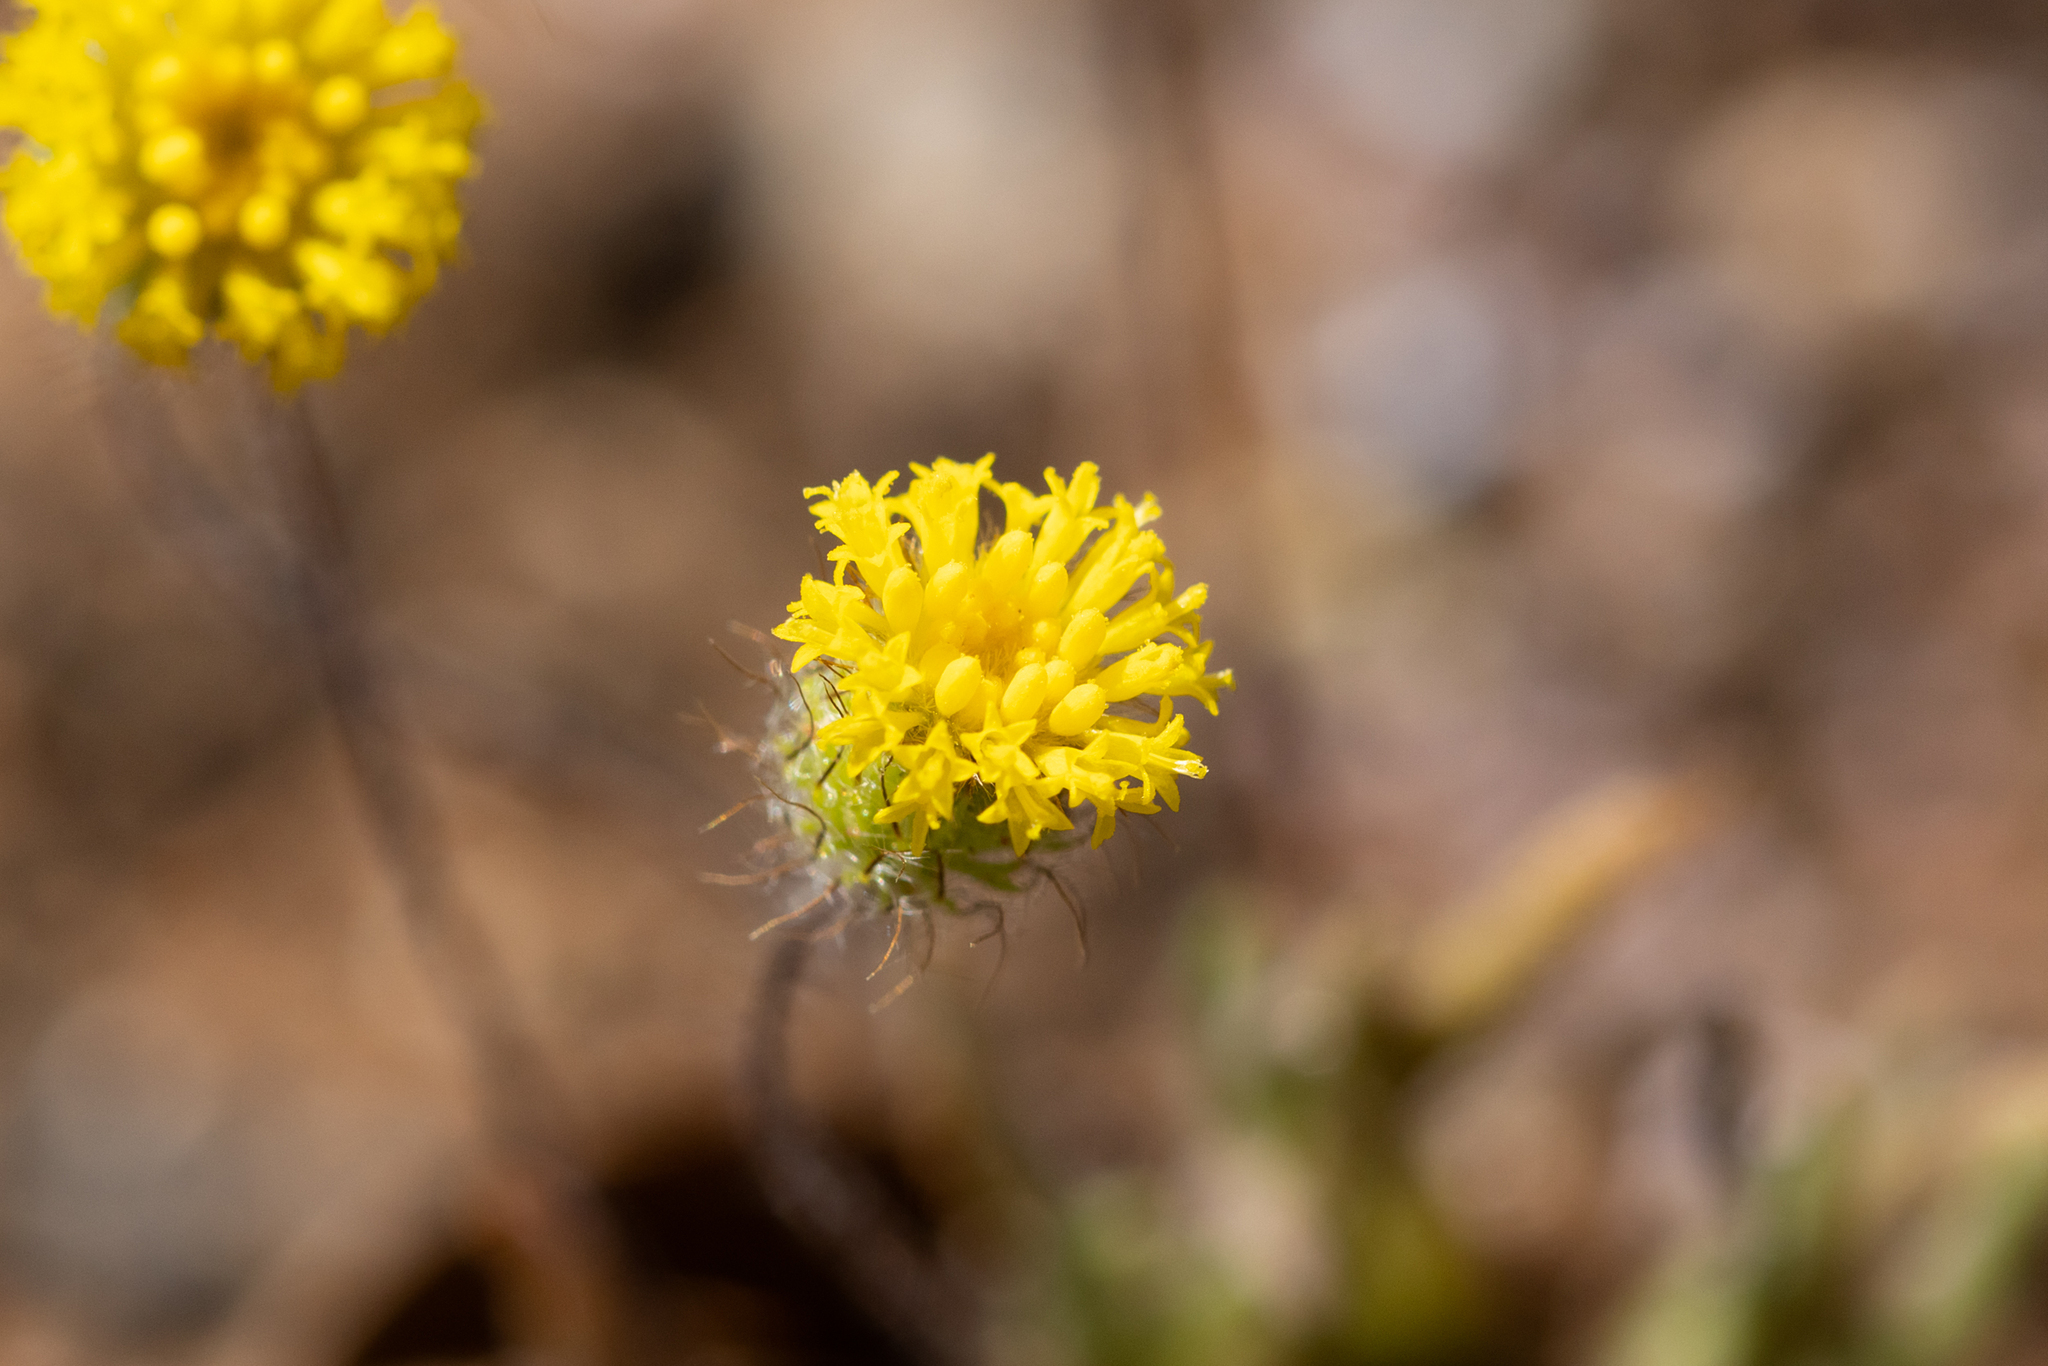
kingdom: Plantae
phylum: Tracheophyta
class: Magnoliopsida
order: Asterales
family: Asteraceae
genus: Asteridea
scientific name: Asteridea athrixioides
